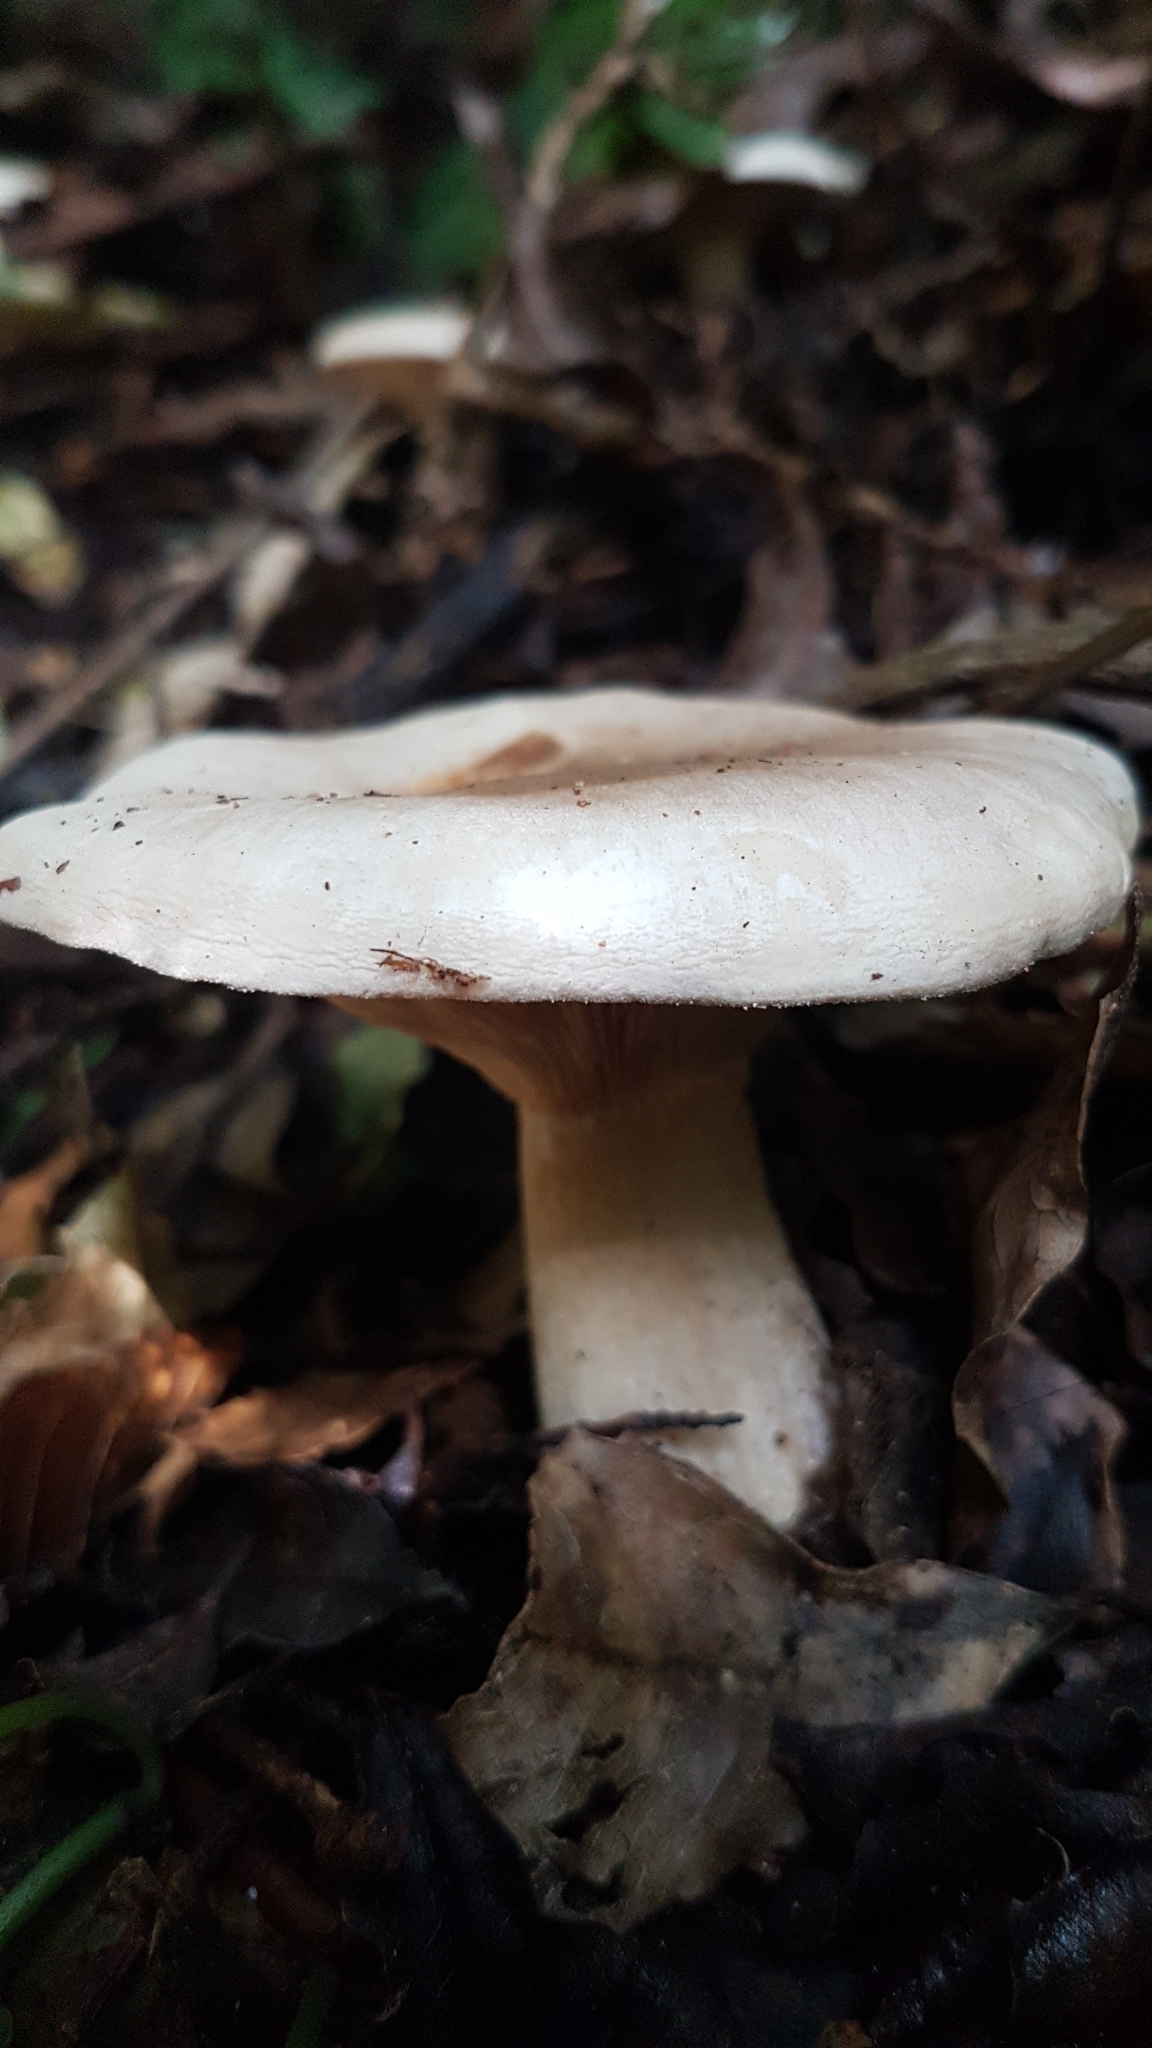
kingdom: Fungi
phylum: Basidiomycota
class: Agaricomycetes
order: Agaricales
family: Tricholomataceae
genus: Clitocybe
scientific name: Clitocybe nebularis
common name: Clouded agaric
